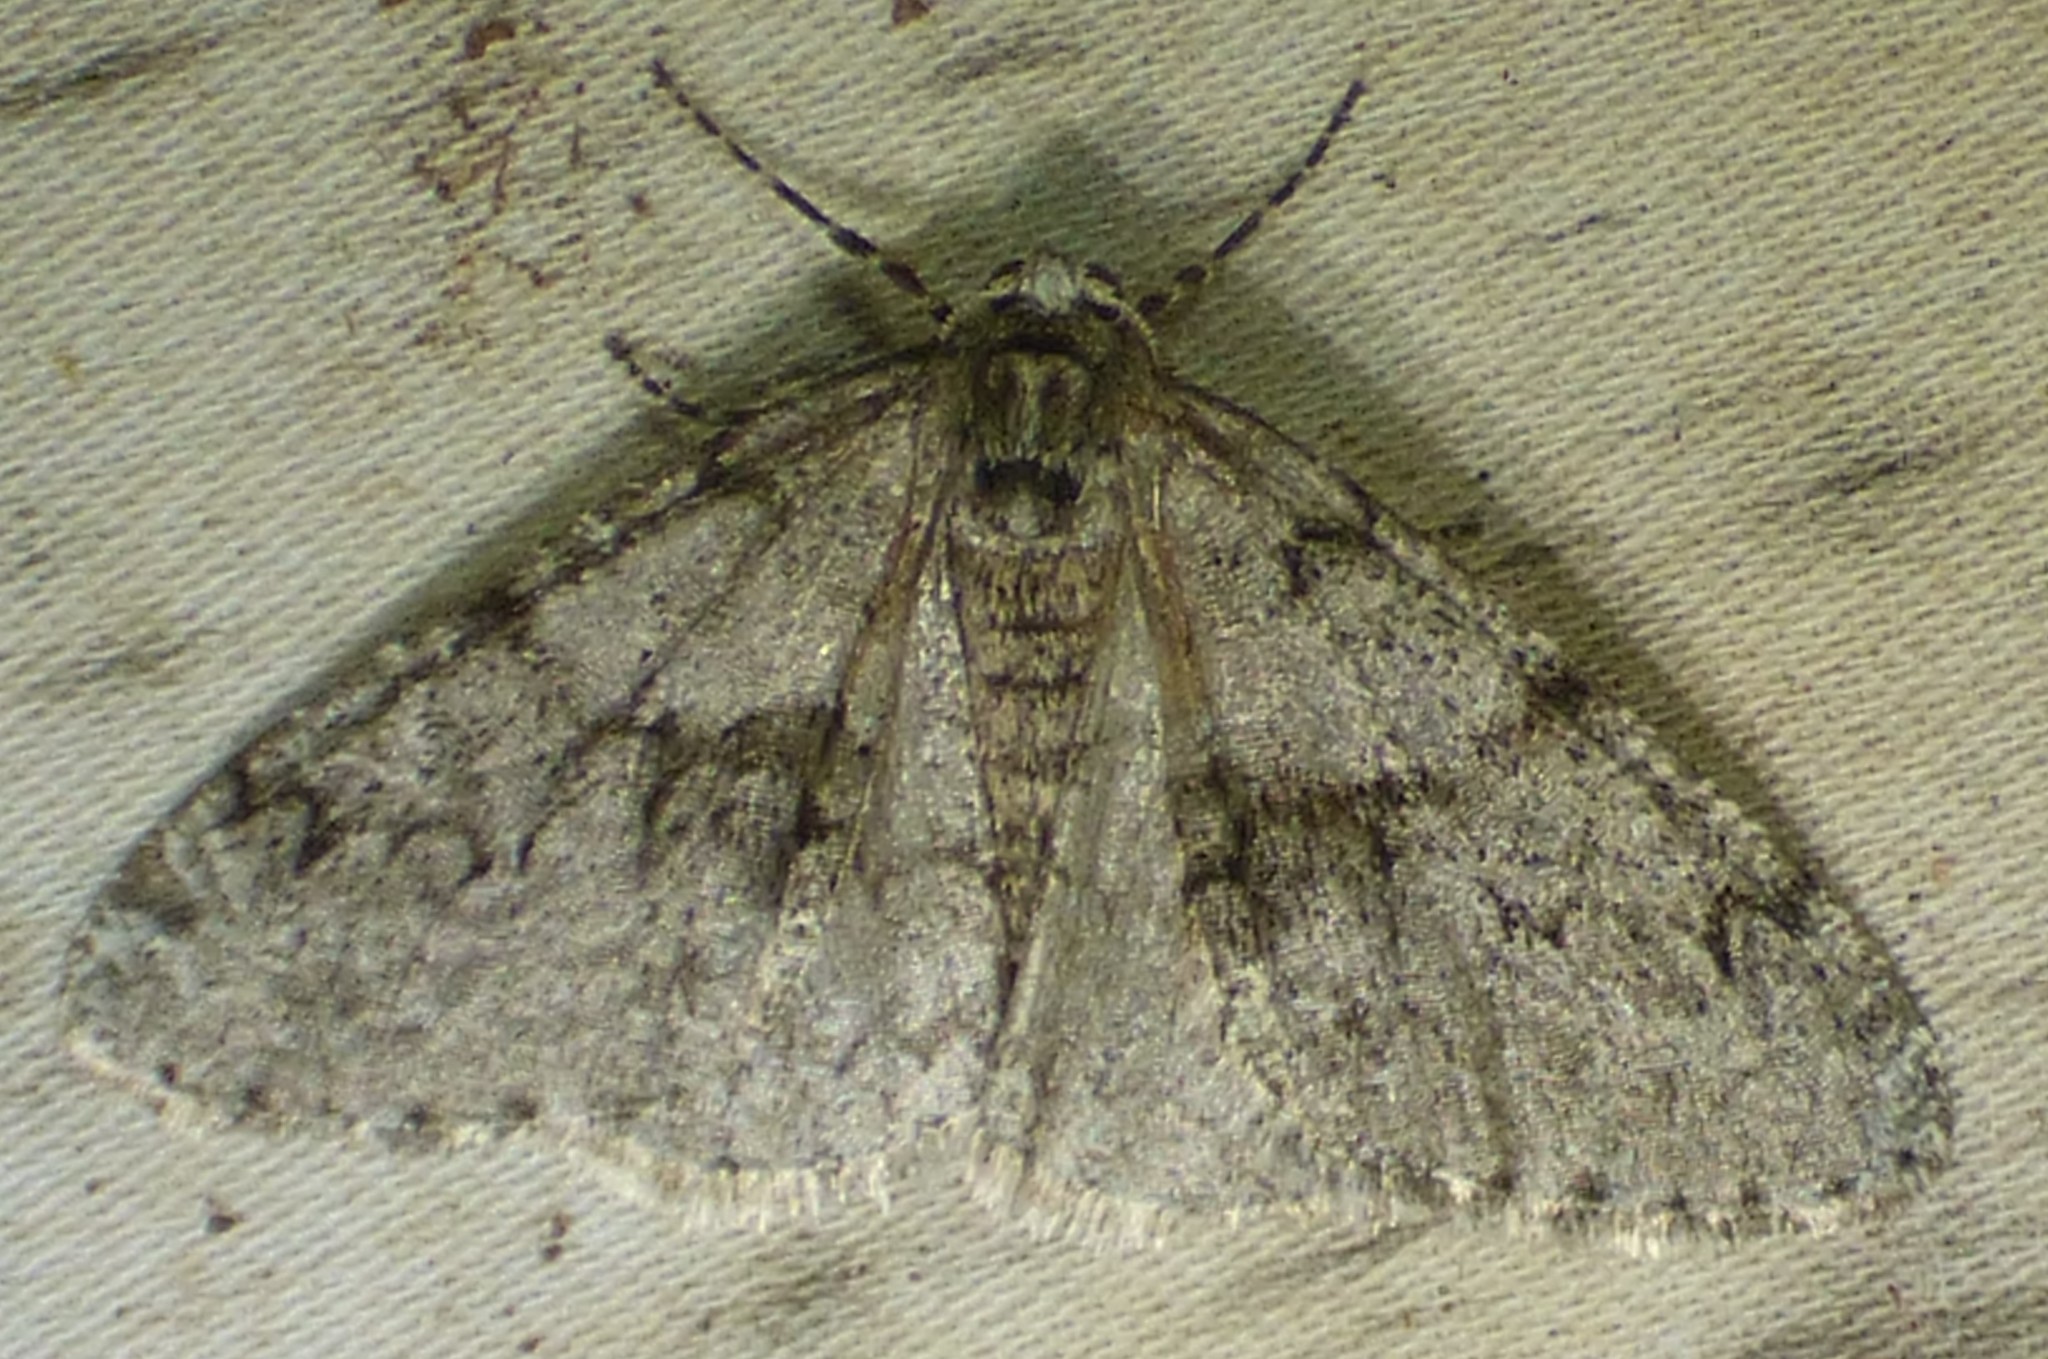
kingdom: Animalia
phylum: Arthropoda
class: Insecta
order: Lepidoptera
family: Geometridae
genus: Phigalia
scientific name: Phigalia denticulata
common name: Toothed phigalia
